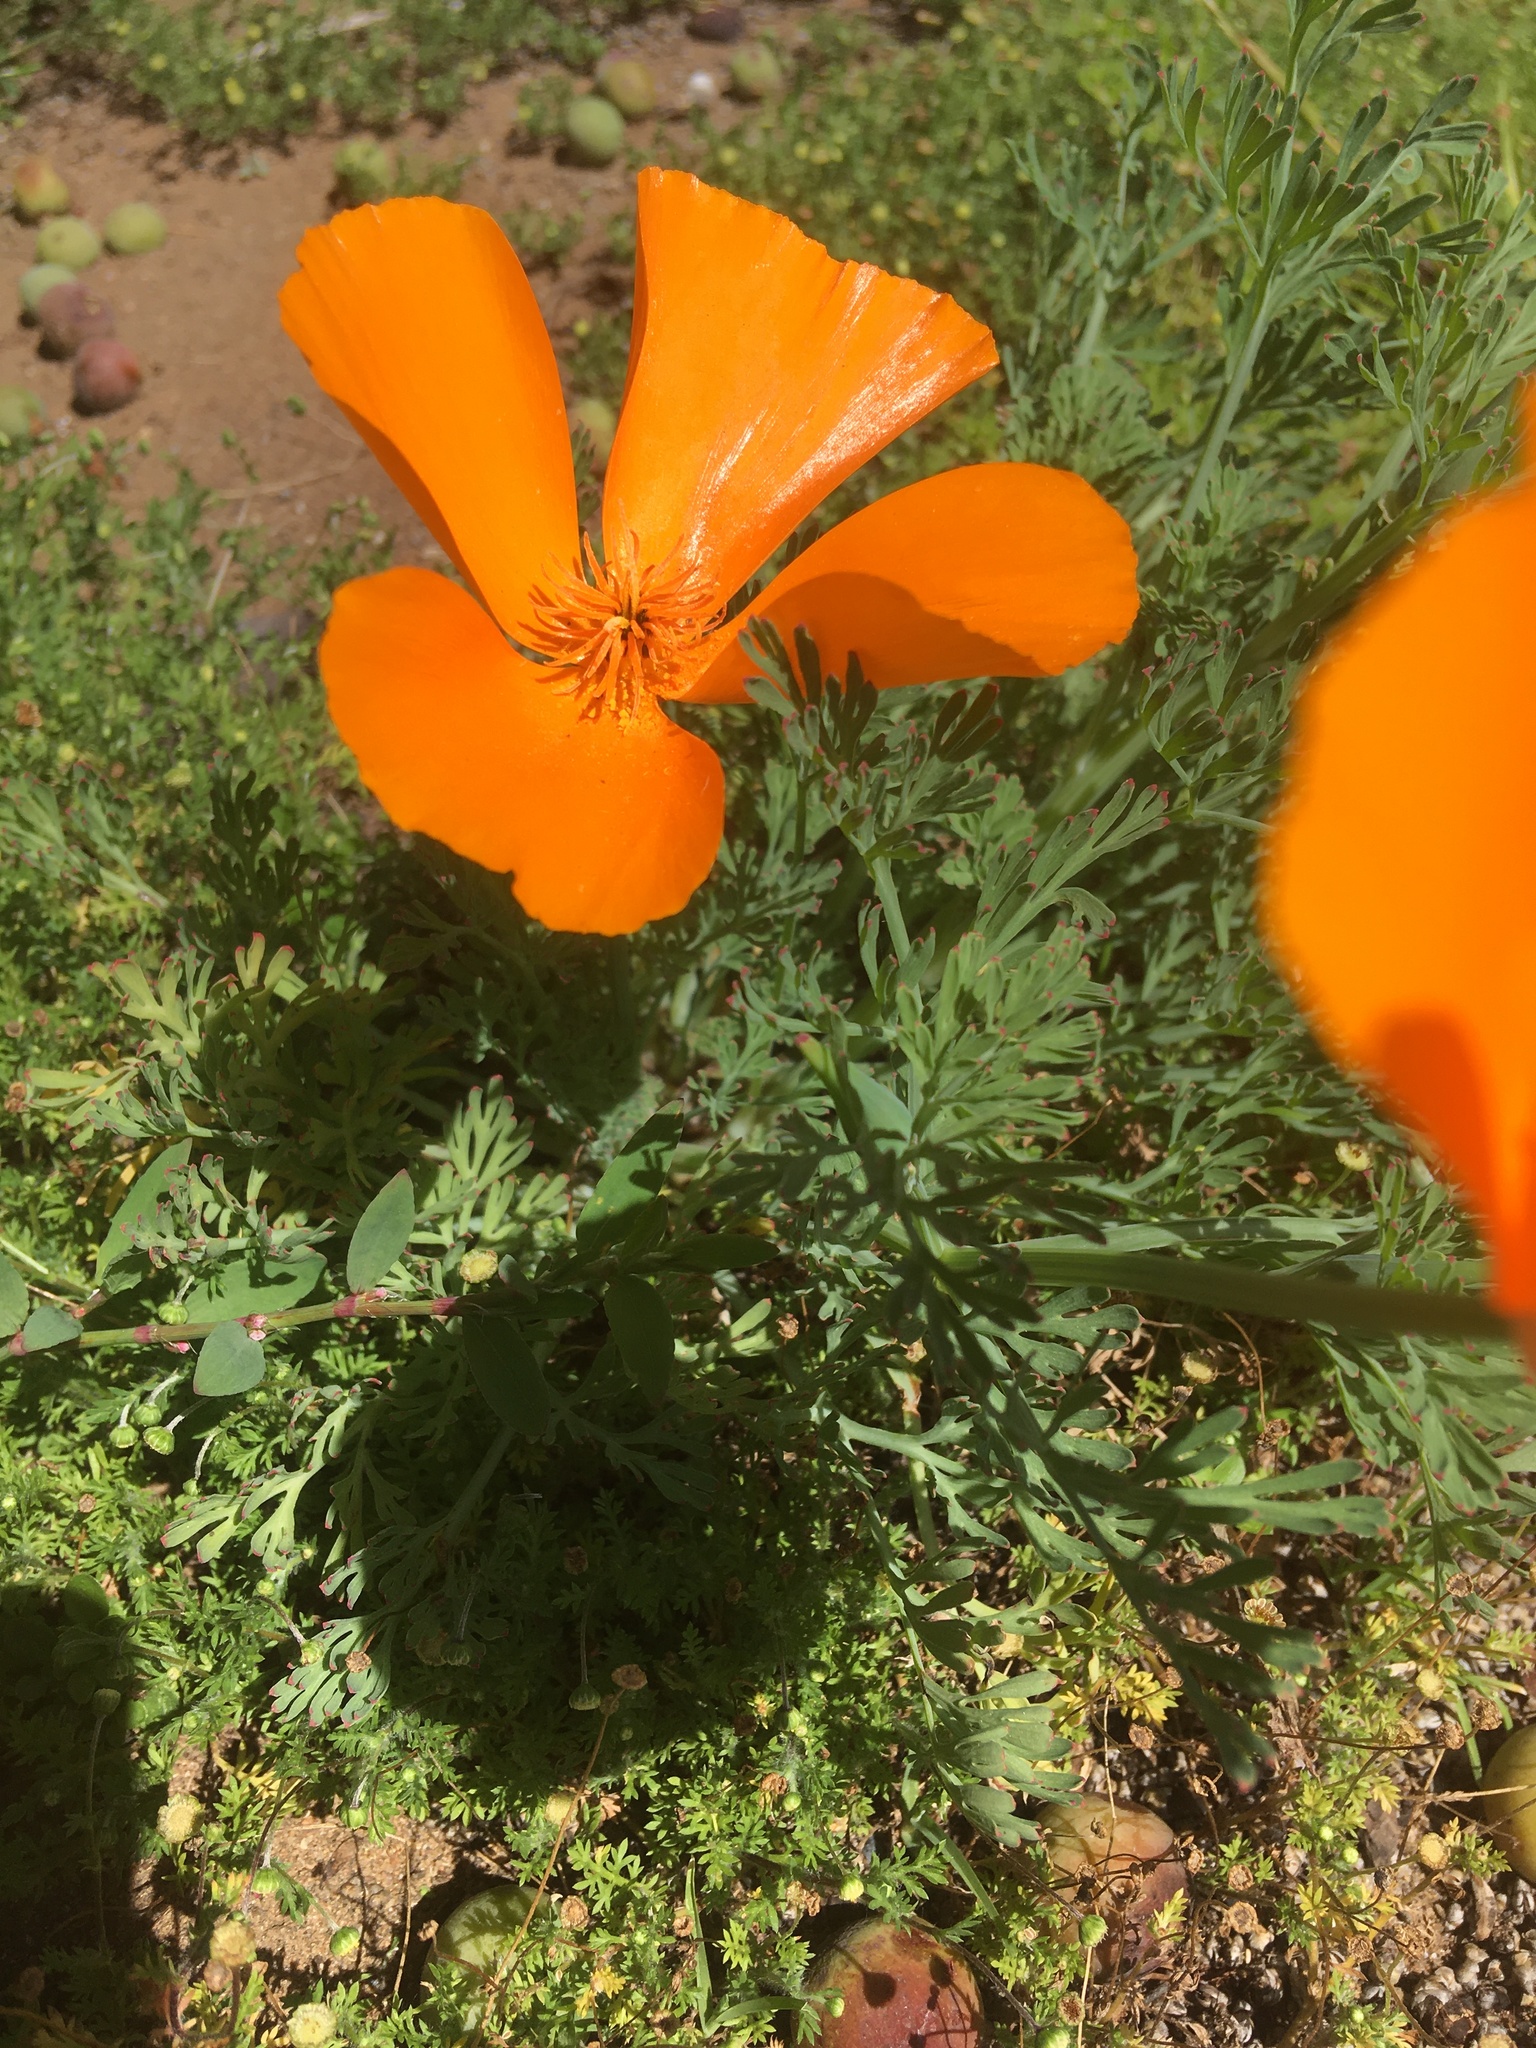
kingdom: Plantae
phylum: Tracheophyta
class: Magnoliopsida
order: Ranunculales
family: Papaveraceae
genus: Eschscholzia
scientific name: Eschscholzia californica
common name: California poppy
